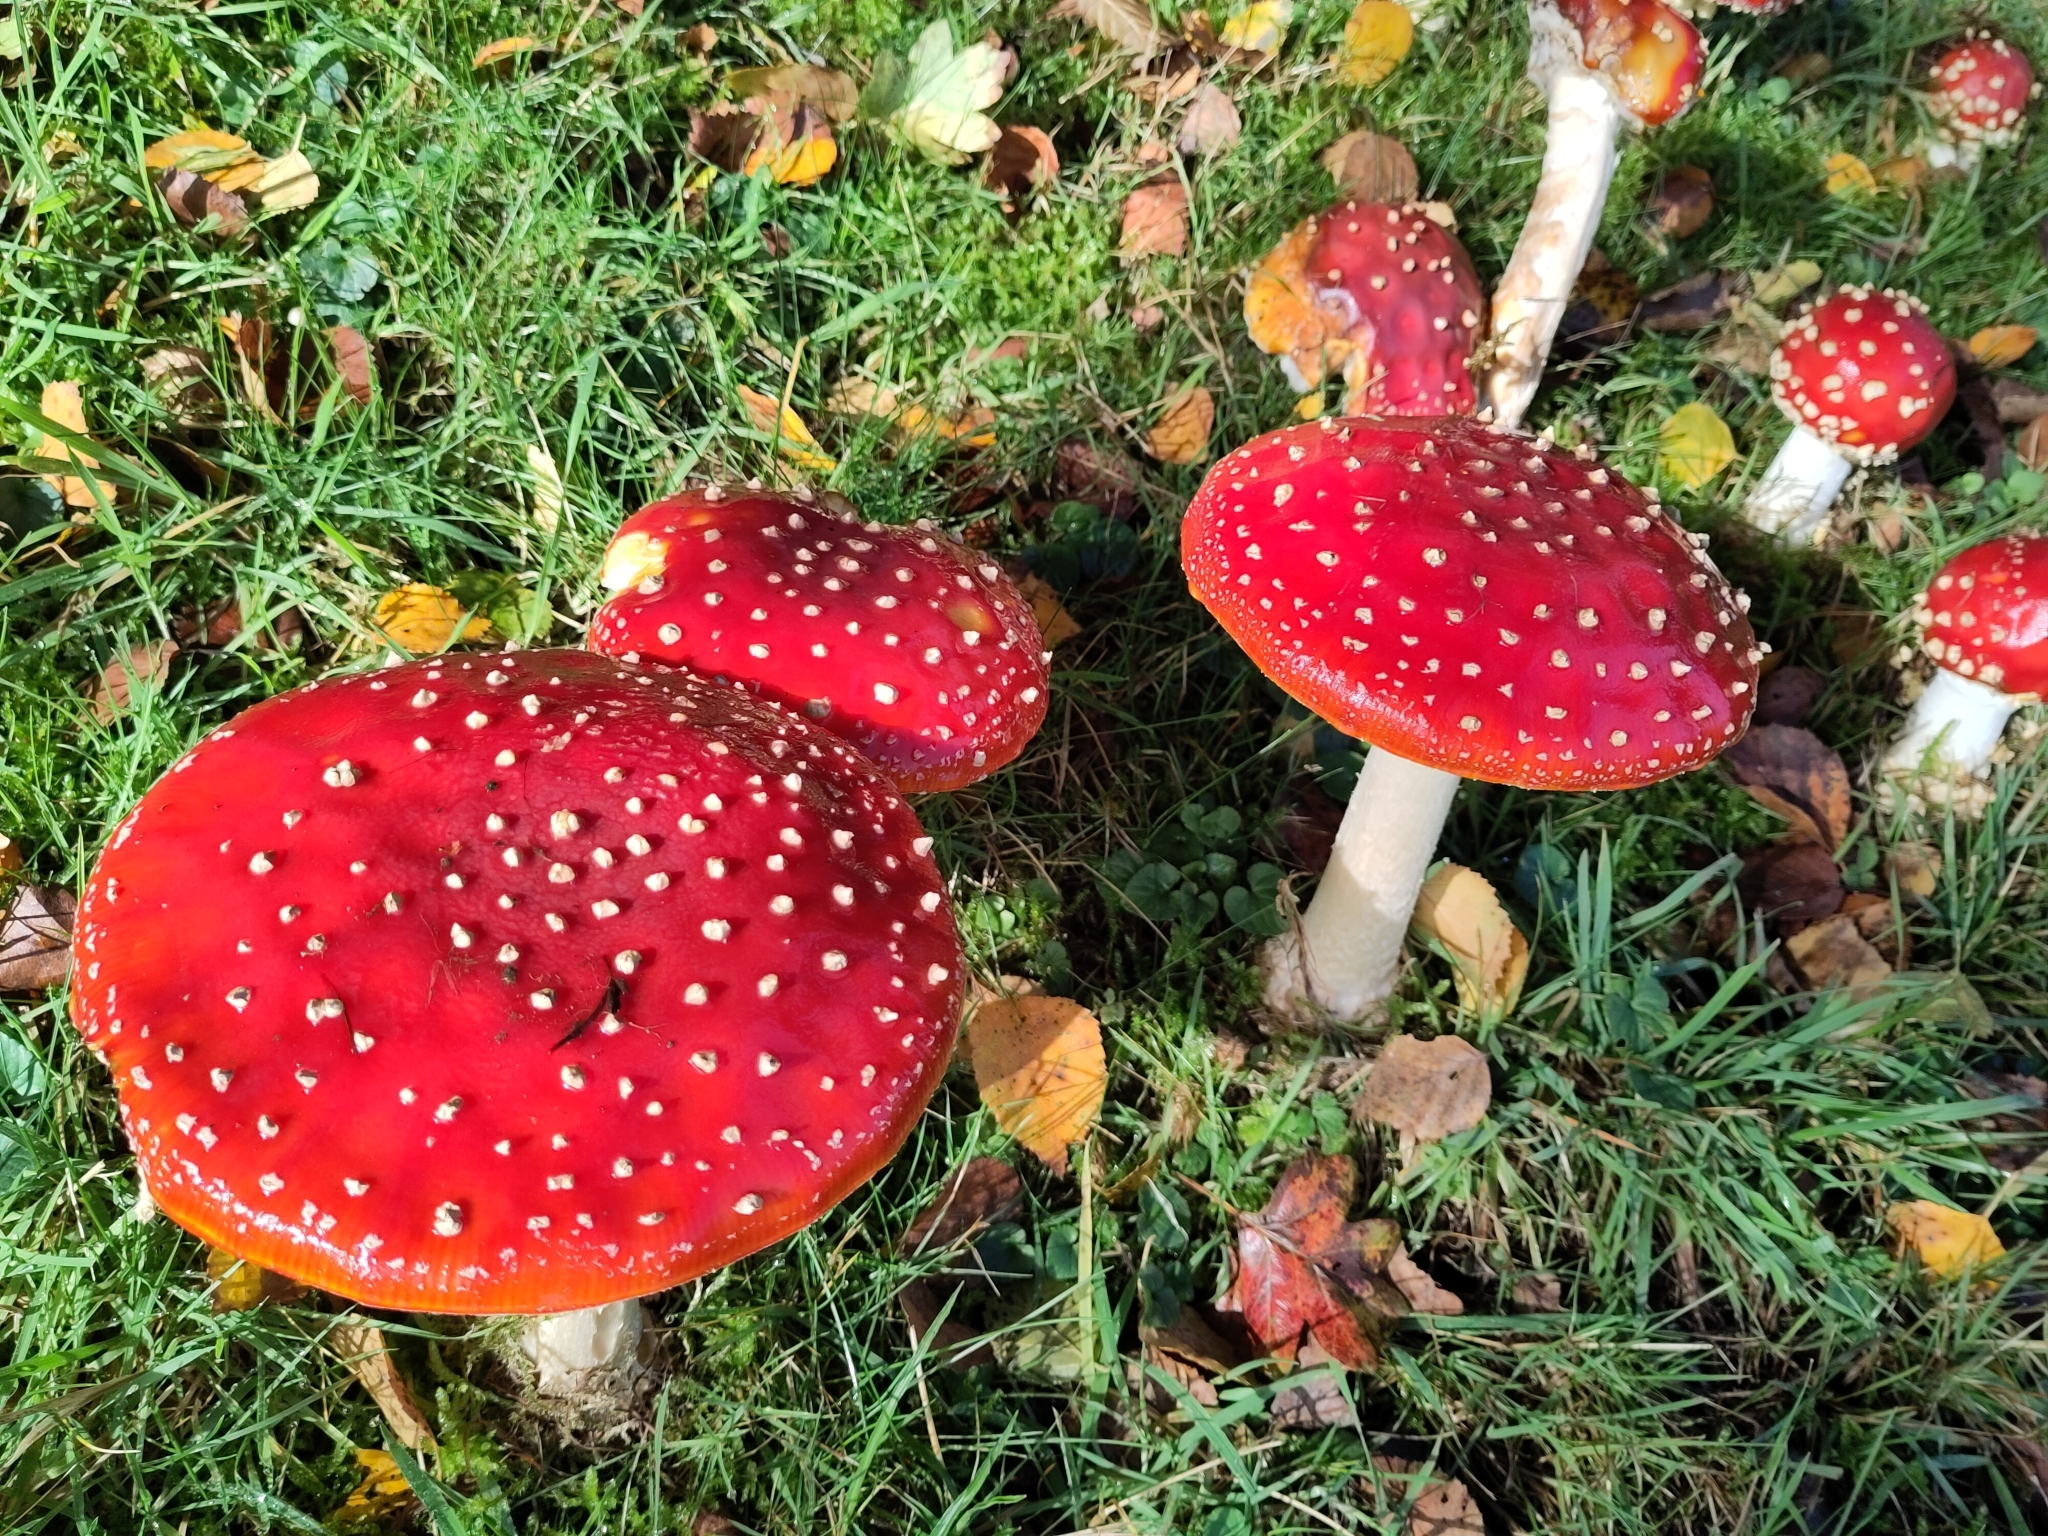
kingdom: Fungi
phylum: Basidiomycota
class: Agaricomycetes
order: Agaricales
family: Amanitaceae
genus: Amanita
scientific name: Amanita muscaria
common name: Fly agaric
